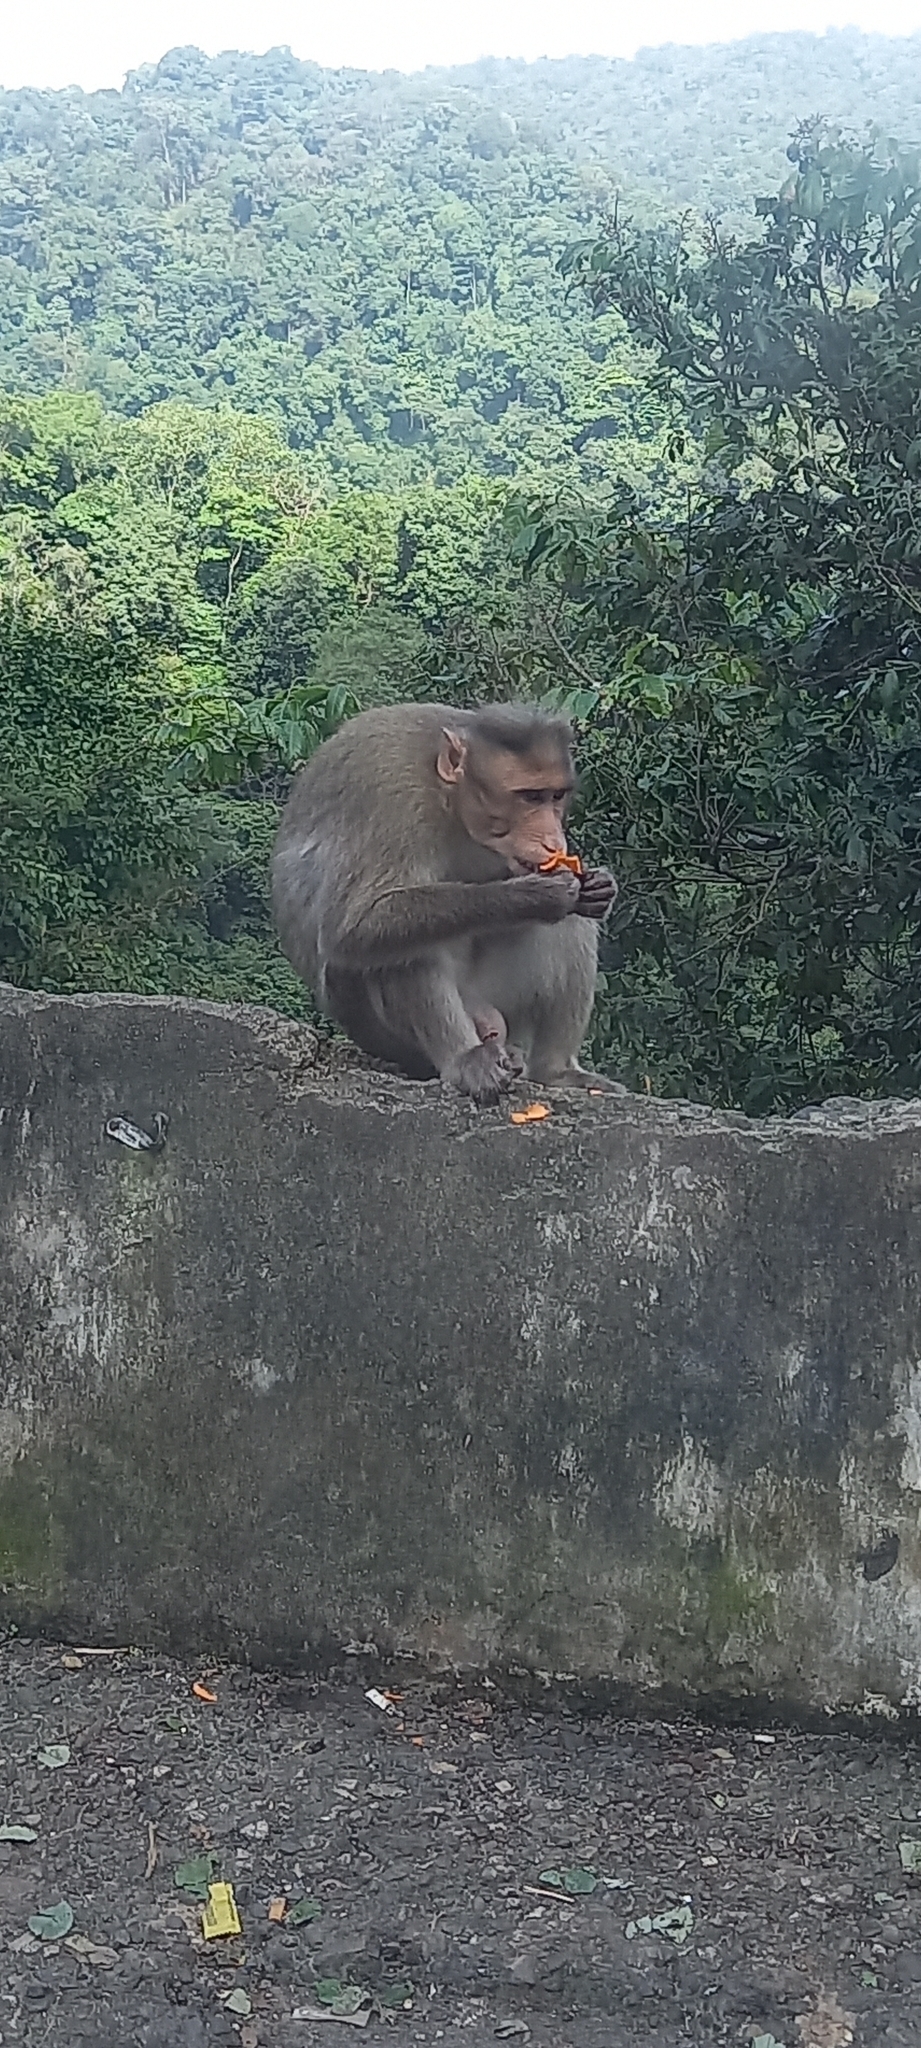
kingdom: Animalia
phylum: Chordata
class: Mammalia
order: Primates
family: Cercopithecidae
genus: Macaca
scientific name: Macaca radiata
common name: Bonnet macaque
